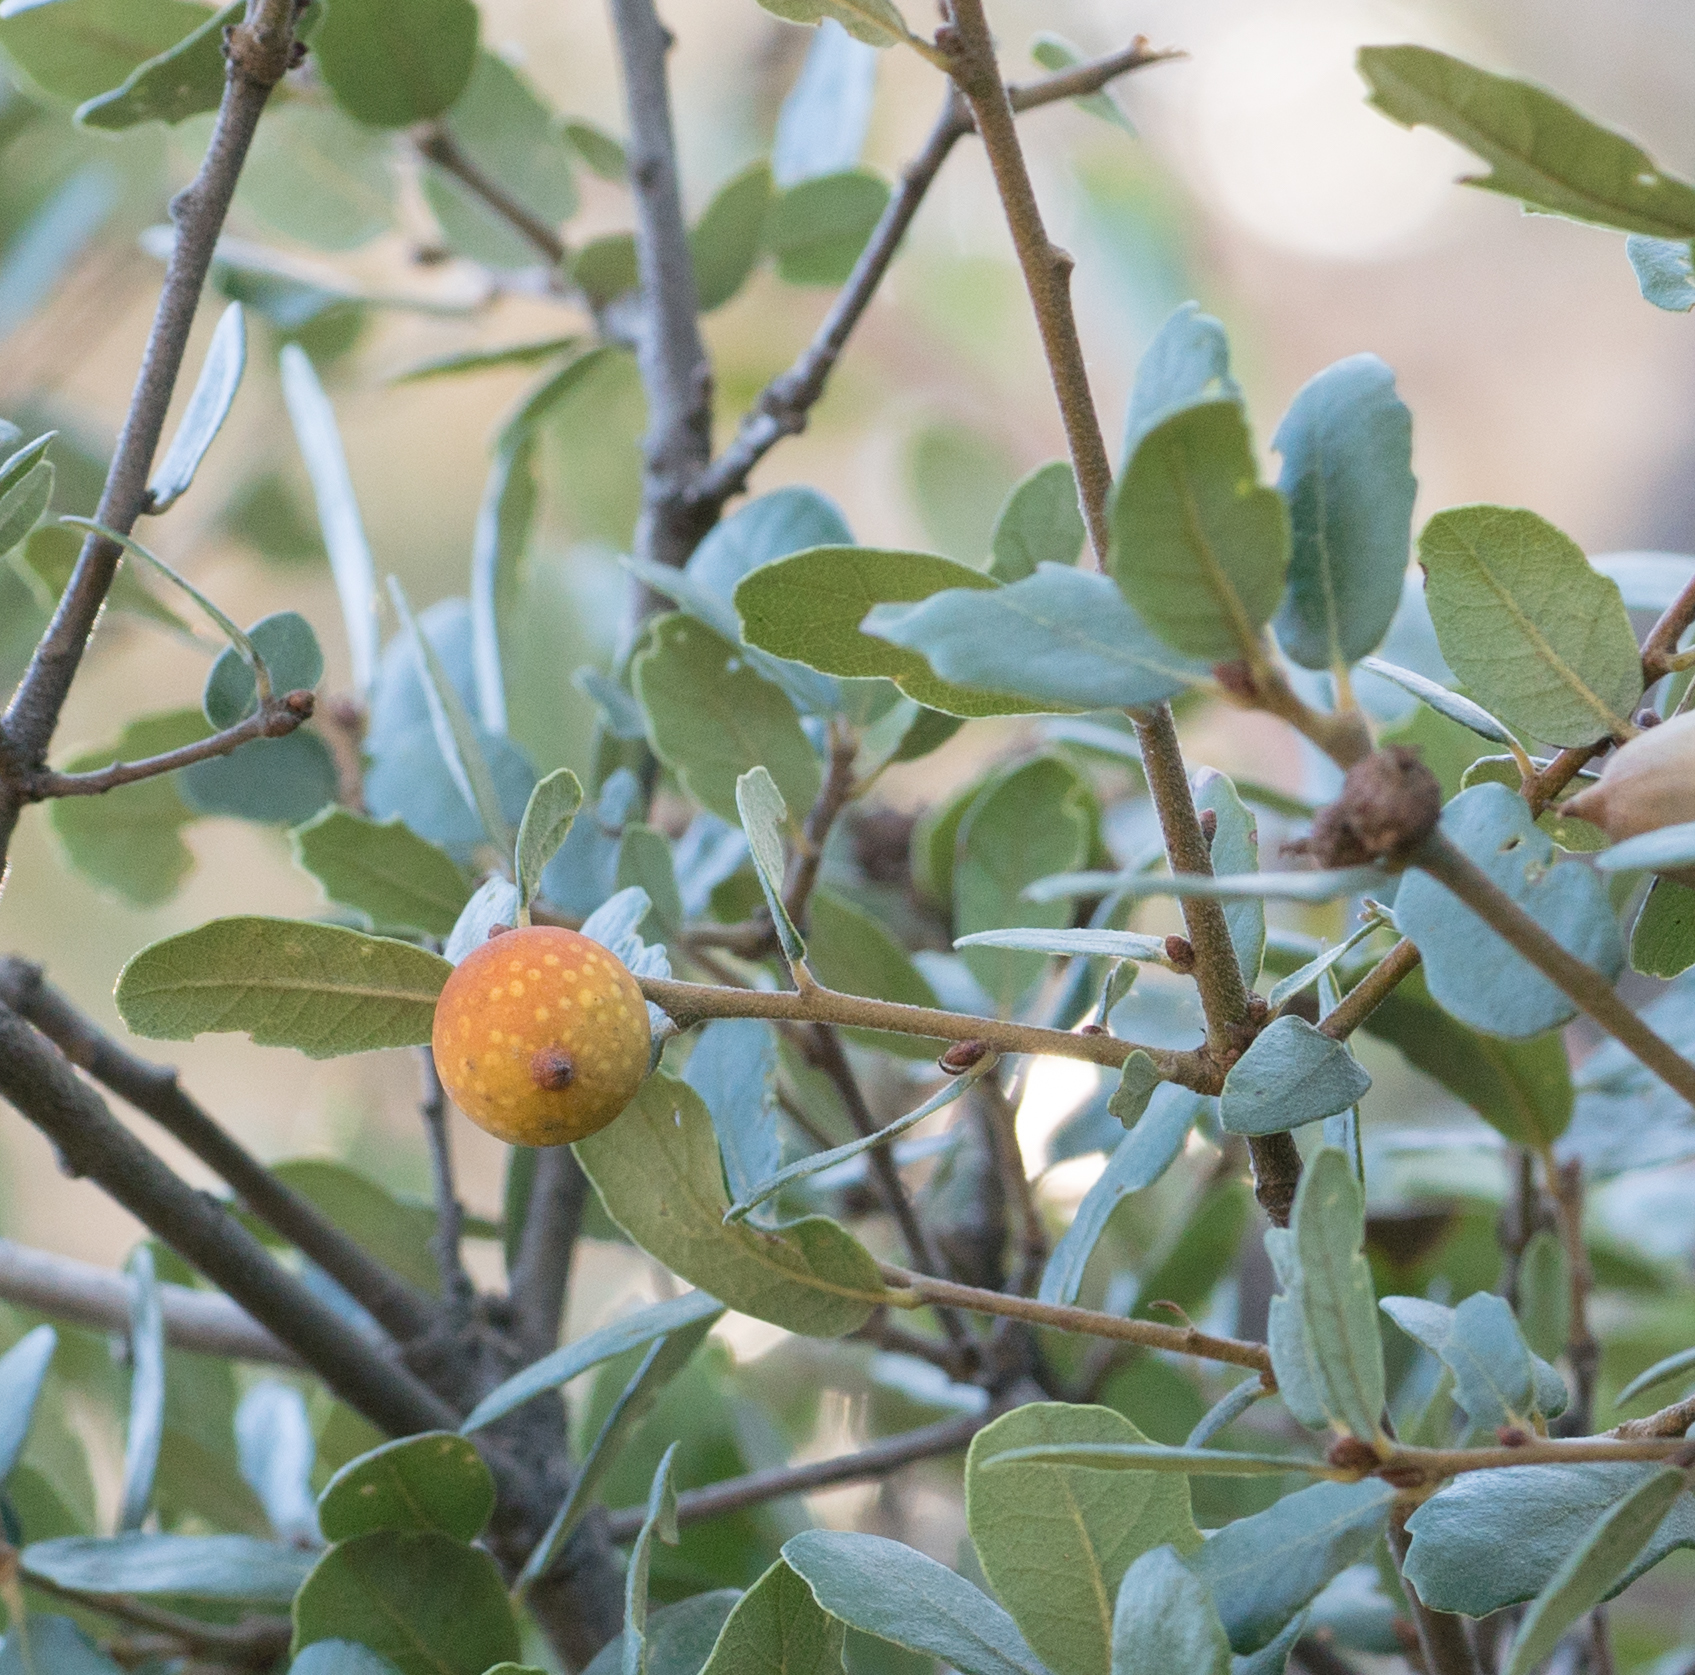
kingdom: Animalia
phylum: Arthropoda
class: Insecta
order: Hymenoptera
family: Cynipidae
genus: Burnettweldia
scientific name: Burnettweldia
